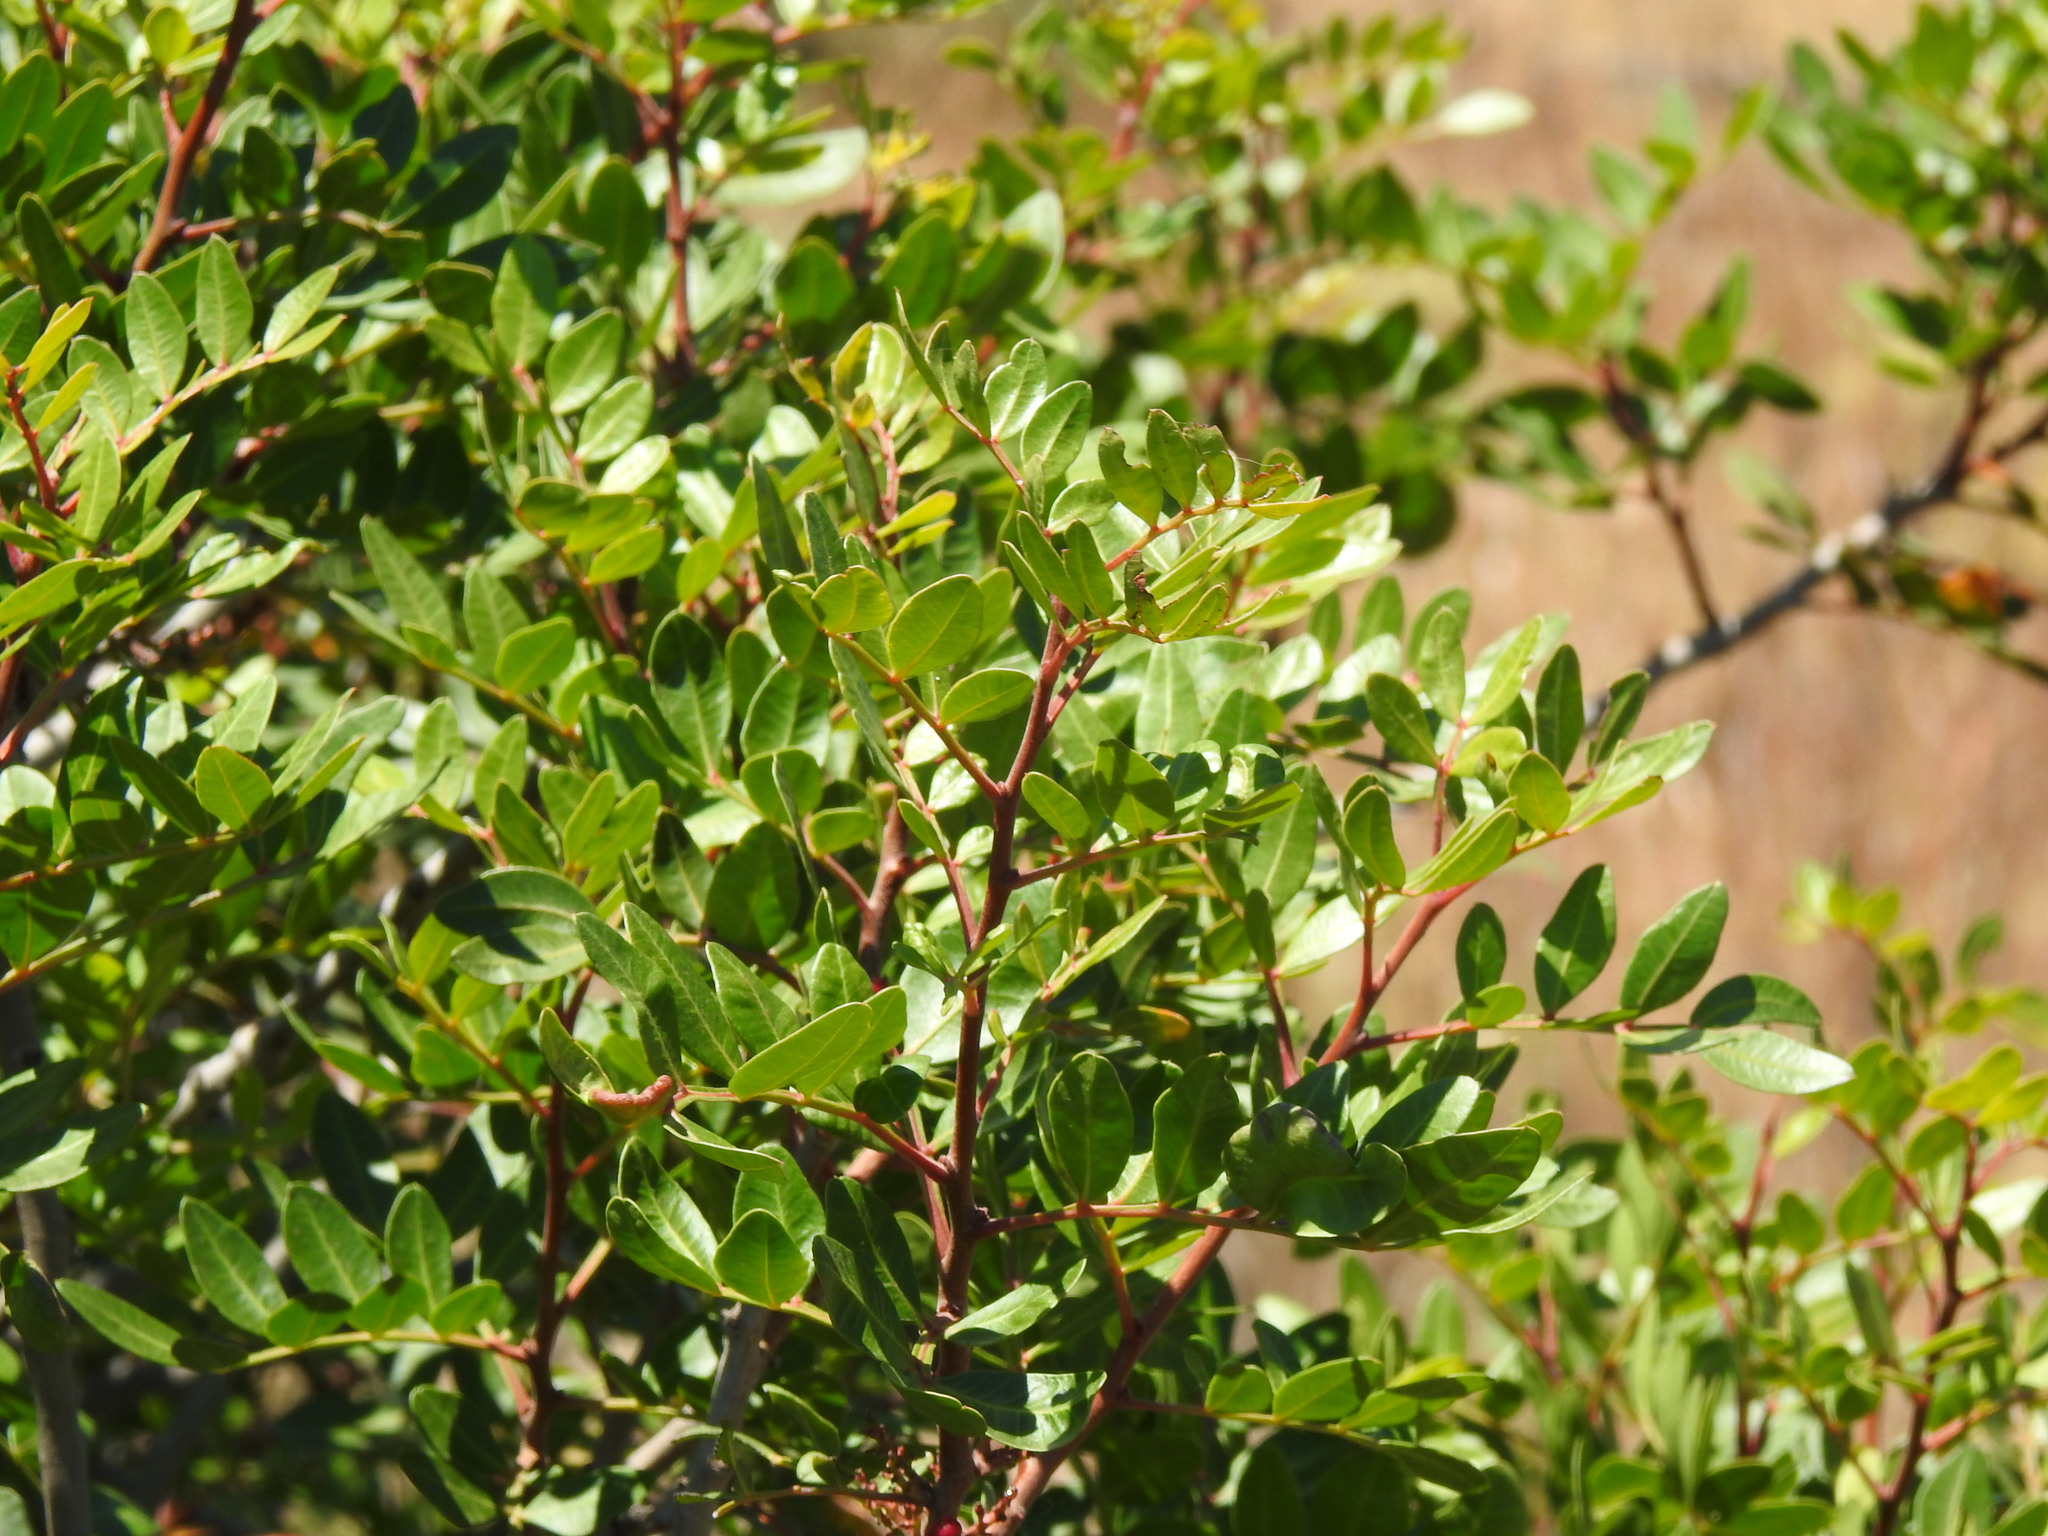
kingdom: Plantae
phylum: Tracheophyta
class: Magnoliopsida
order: Sapindales
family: Anacardiaceae
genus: Pistacia
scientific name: Pistacia lentiscus
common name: Lentisk
